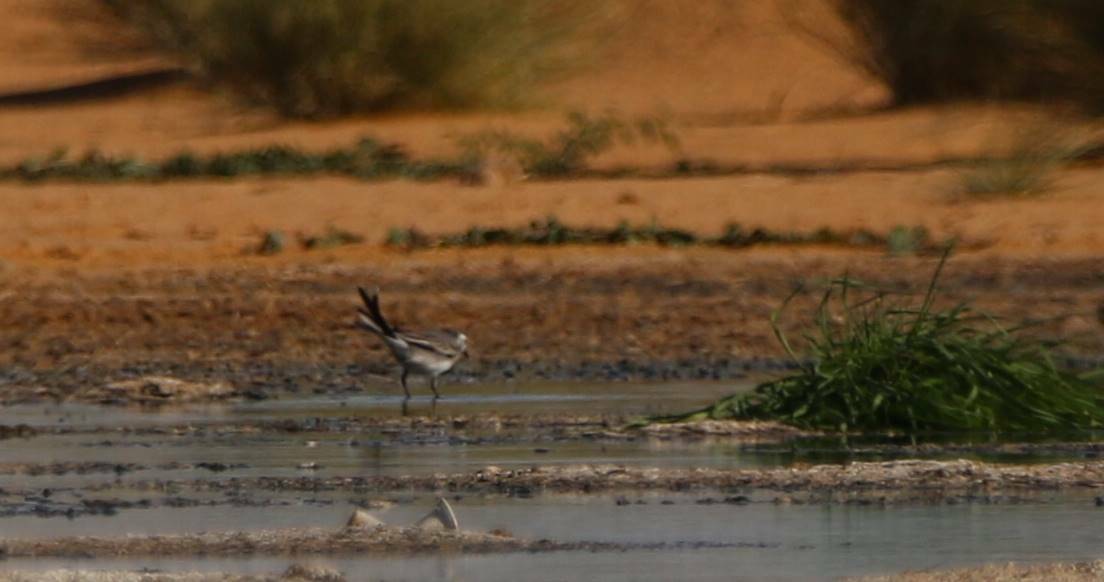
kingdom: Animalia
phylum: Chordata
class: Aves
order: Passeriformes
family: Motacillidae
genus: Motacilla
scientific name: Motacilla alba
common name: White wagtail
